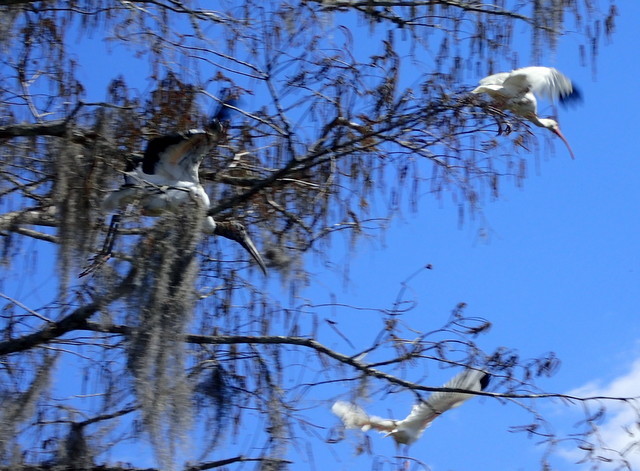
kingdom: Animalia
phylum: Chordata
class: Aves
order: Ciconiiformes
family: Ciconiidae
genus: Mycteria
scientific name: Mycteria americana
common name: Wood stork
